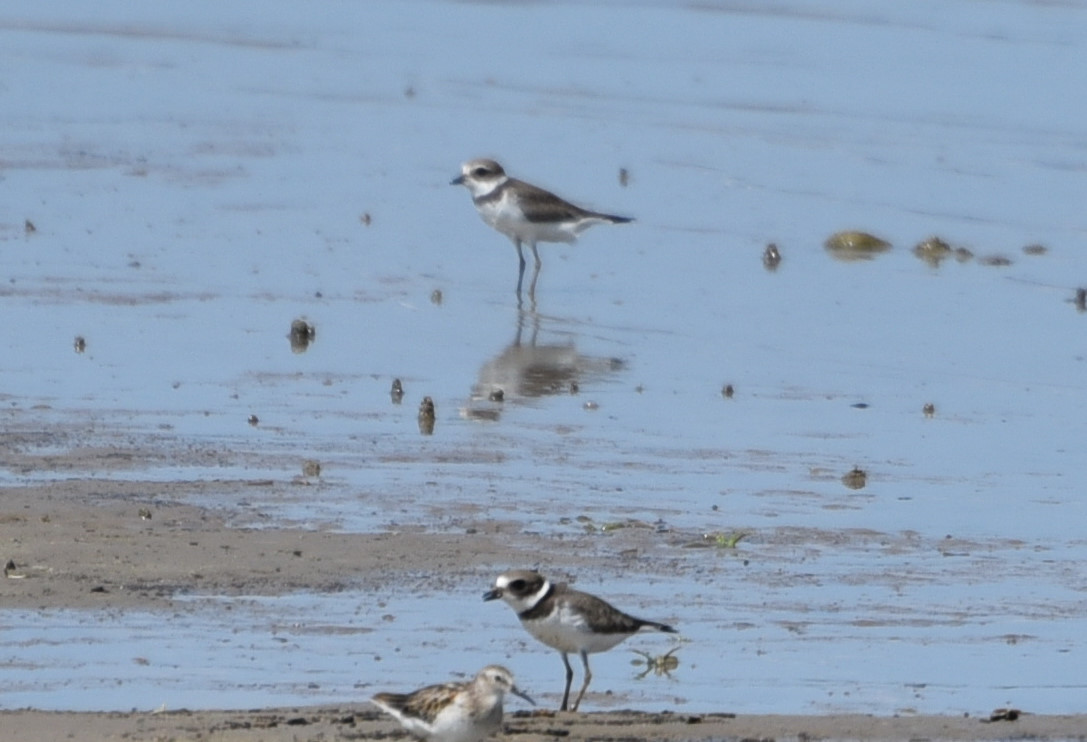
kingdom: Animalia
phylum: Chordata
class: Aves
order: Charadriiformes
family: Charadriidae
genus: Charadrius
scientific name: Charadrius semipalmatus
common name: Semipalmated plover
